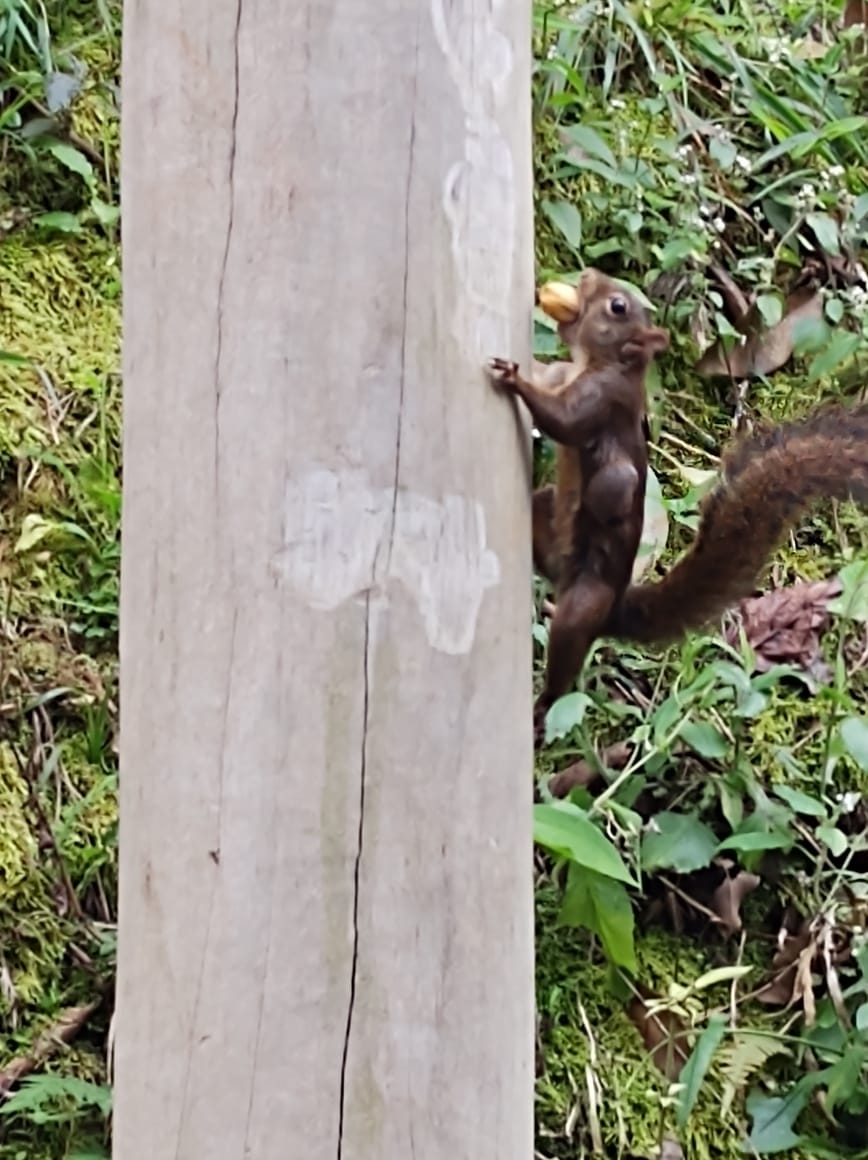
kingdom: Animalia
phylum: Chordata
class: Mammalia
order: Rodentia
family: Sciuridae
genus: Sciurus
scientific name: Sciurus aestuans
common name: Guianan squirrel
